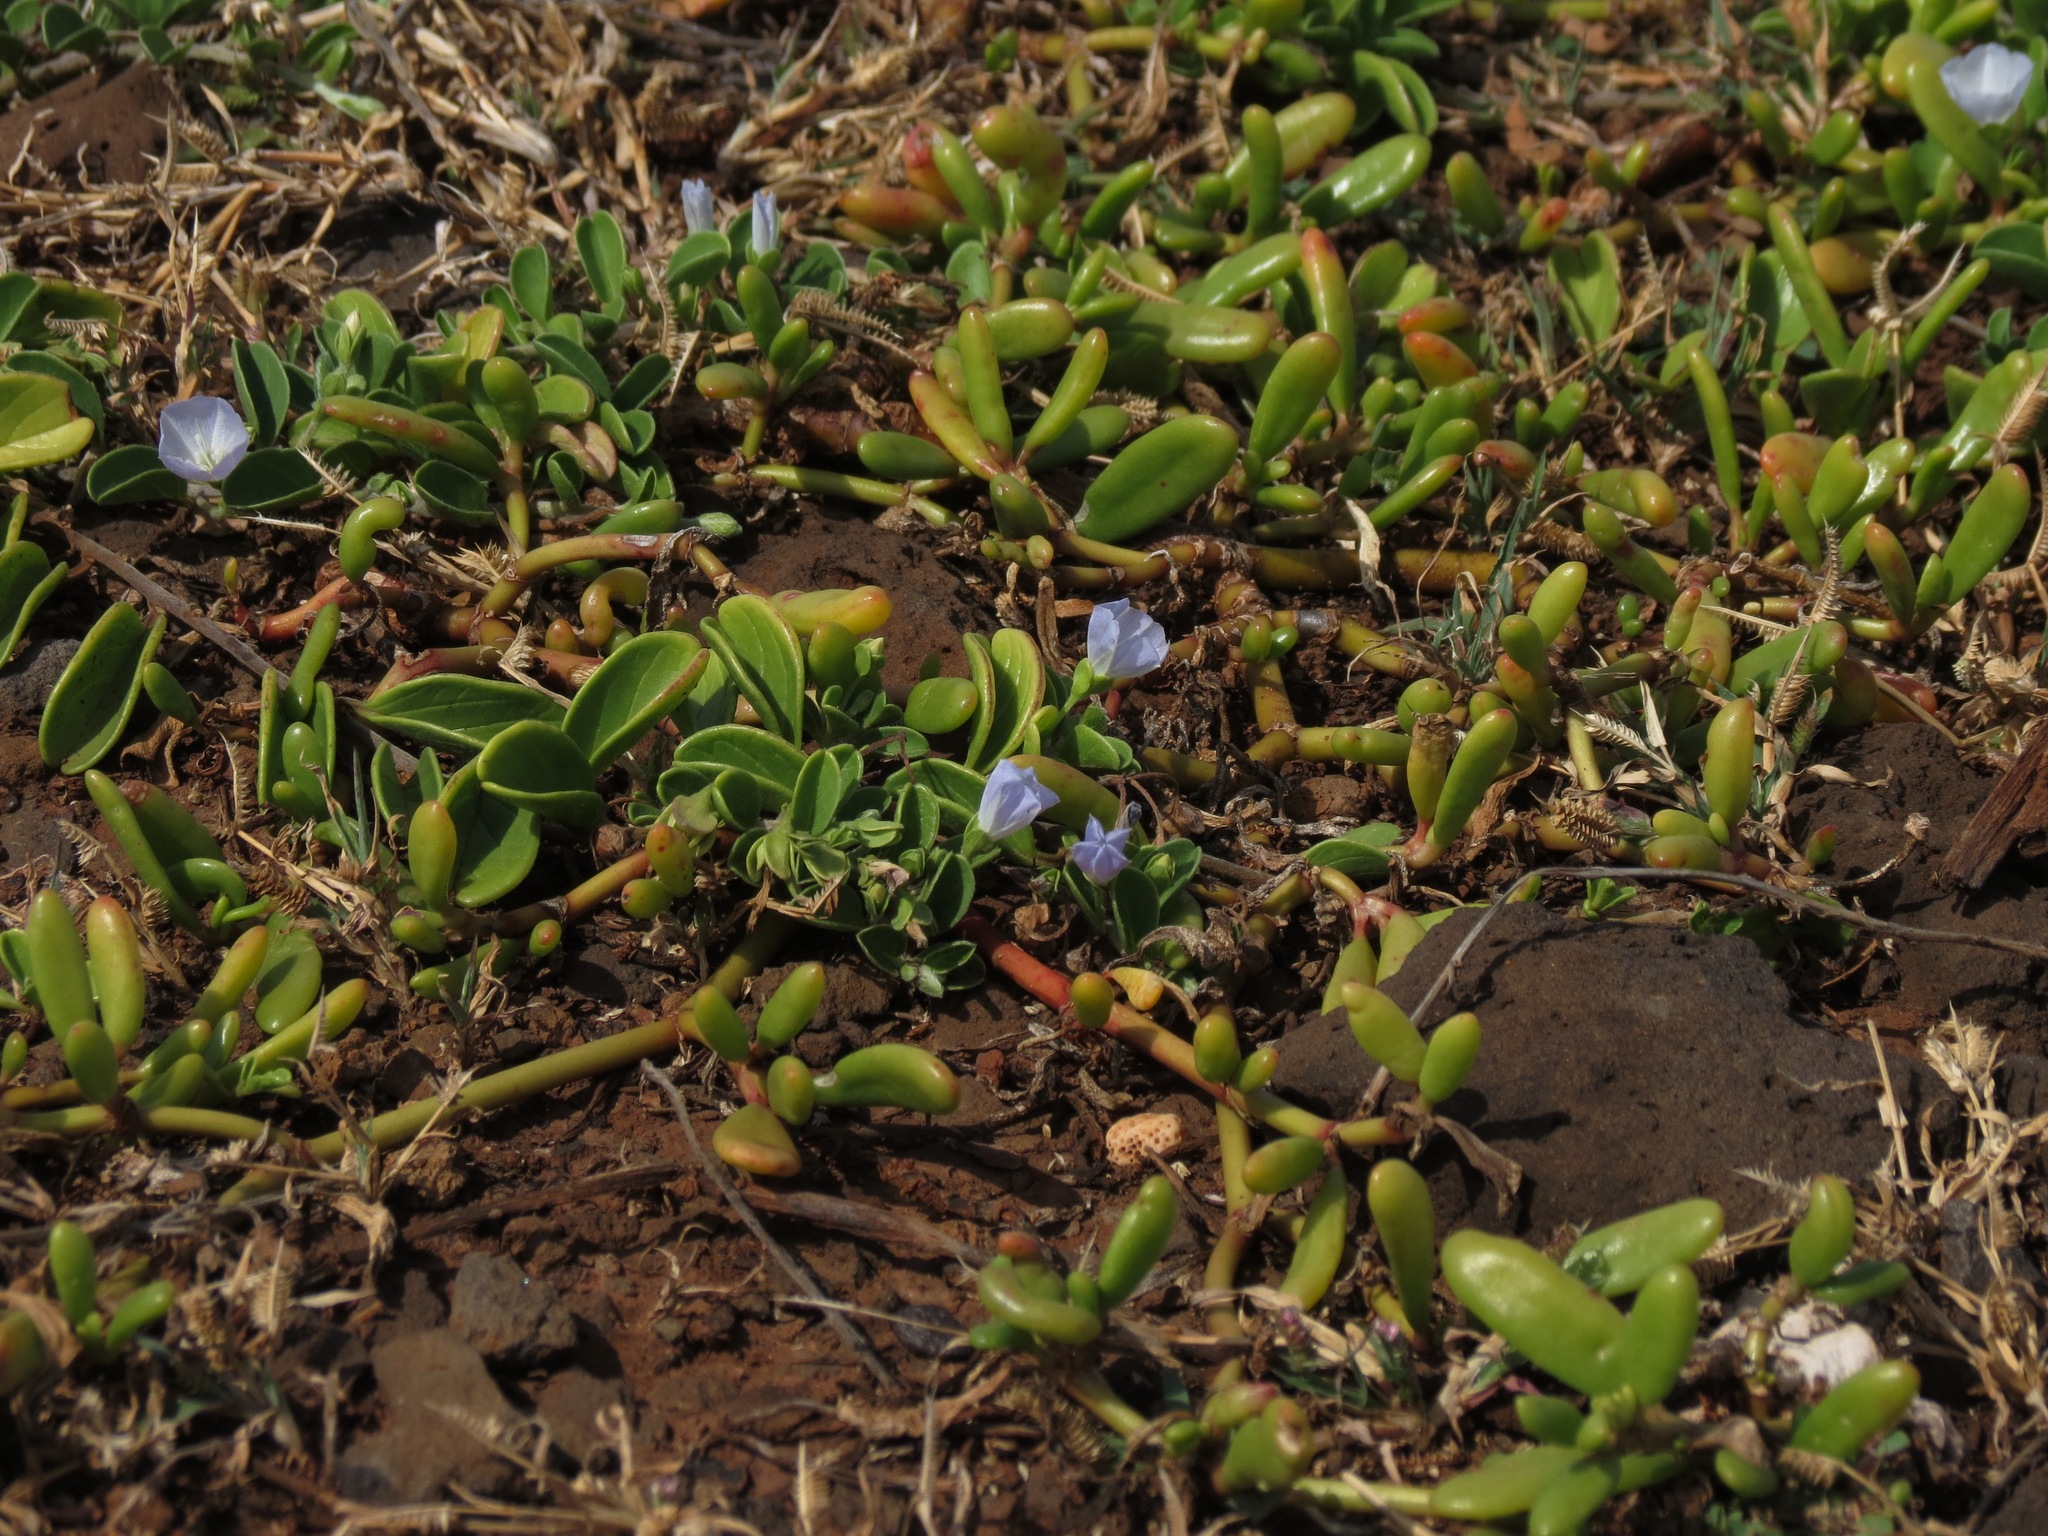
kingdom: Plantae
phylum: Tracheophyta
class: Magnoliopsida
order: Solanales
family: Convolvulaceae
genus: Jacquemontia
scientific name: Jacquemontia sandwicensis
